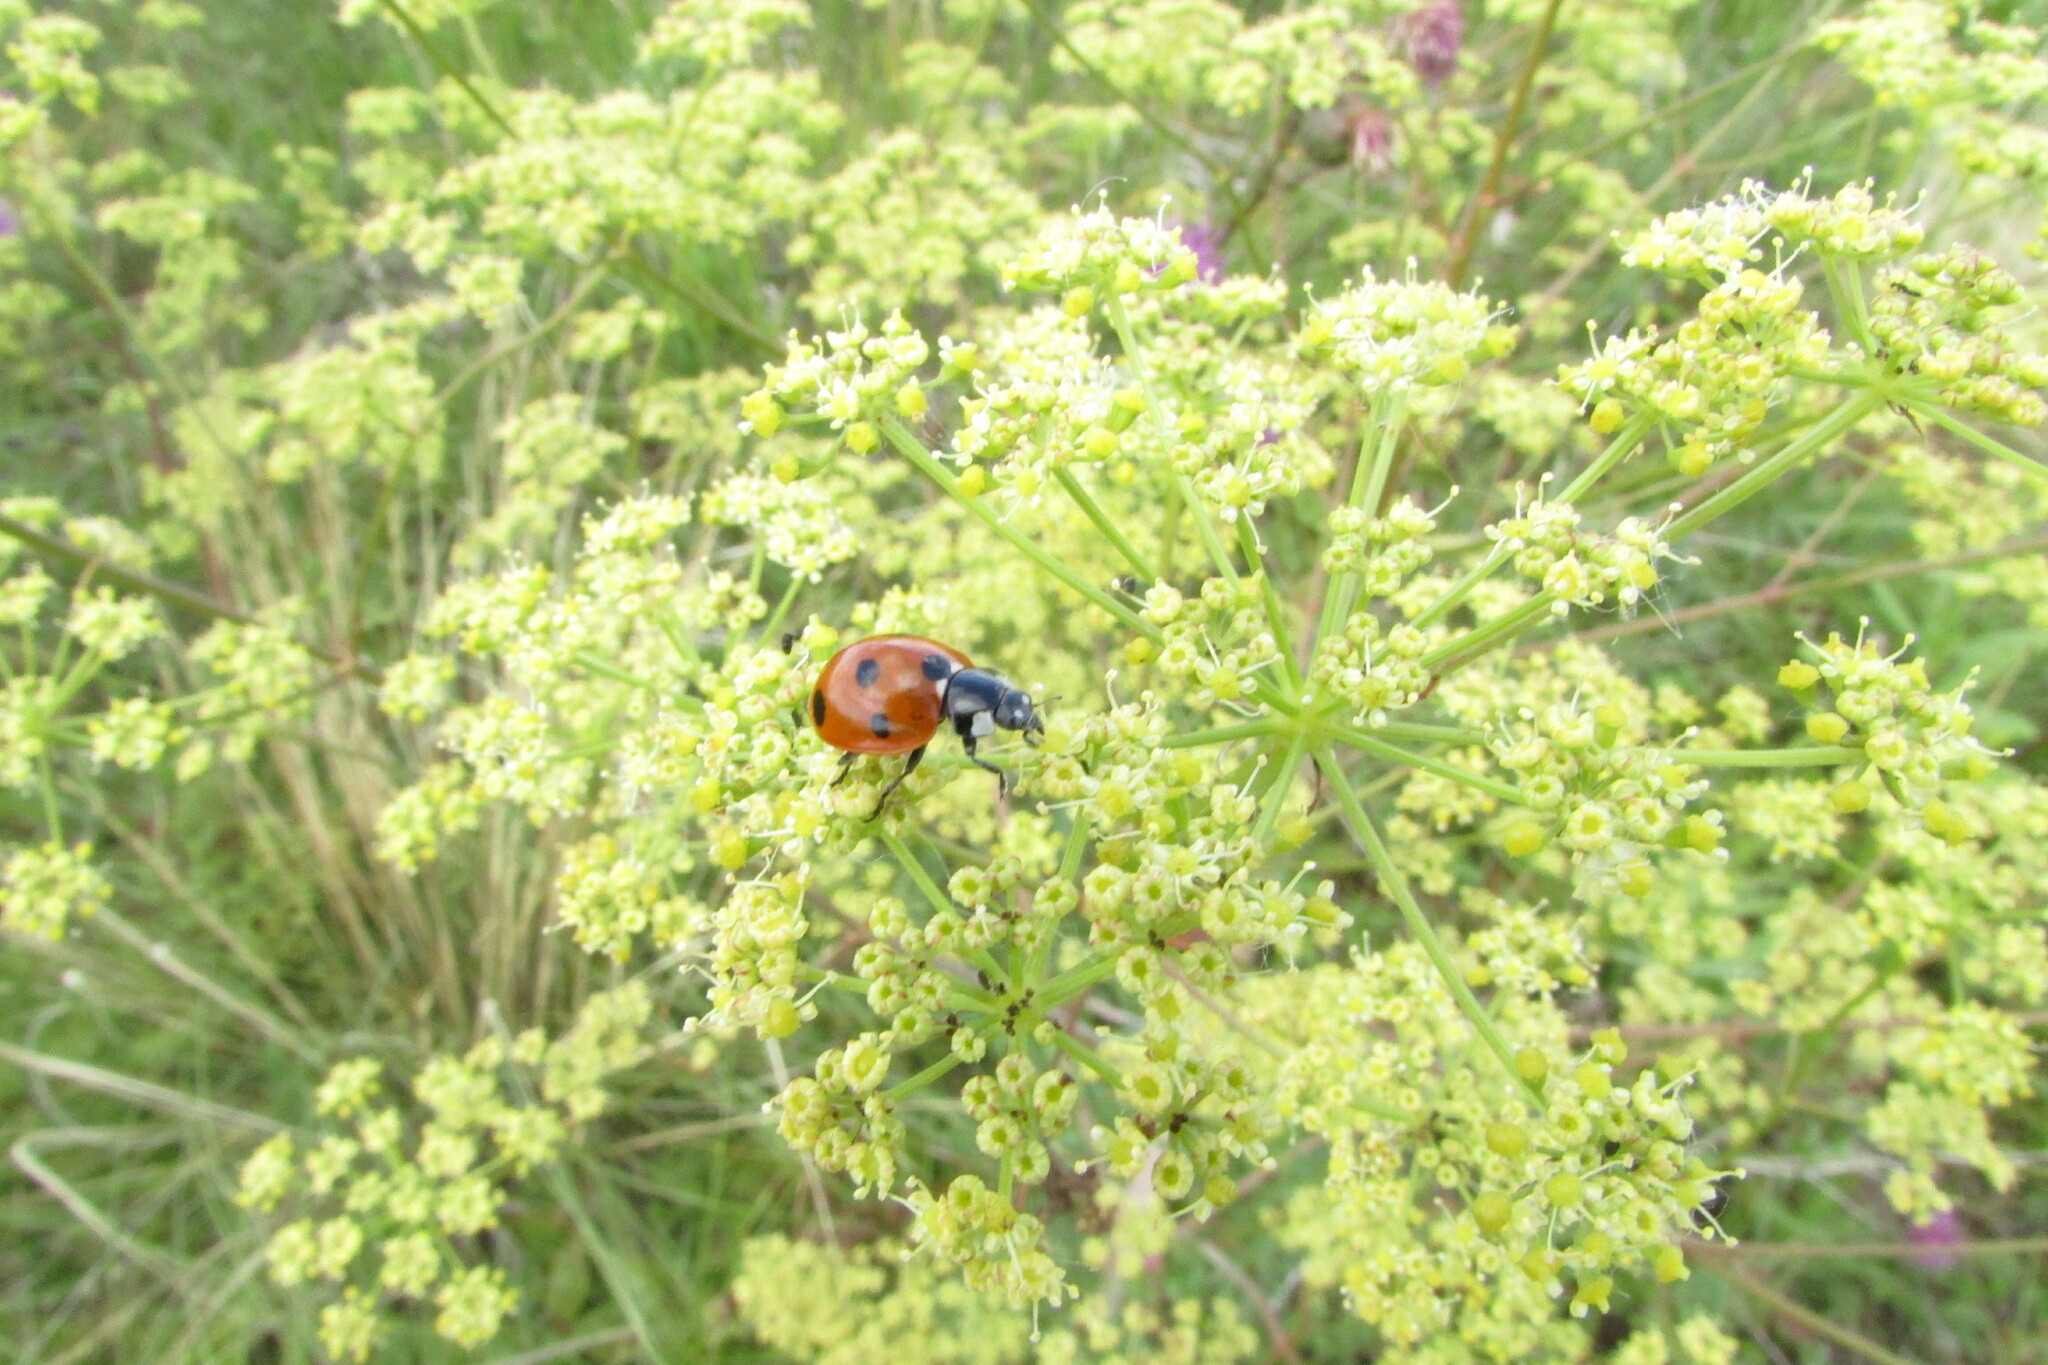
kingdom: Animalia
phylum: Arthropoda
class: Insecta
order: Coleoptera
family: Coccinellidae
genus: Coccinella
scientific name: Coccinella septempunctata
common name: Sevenspotted lady beetle
